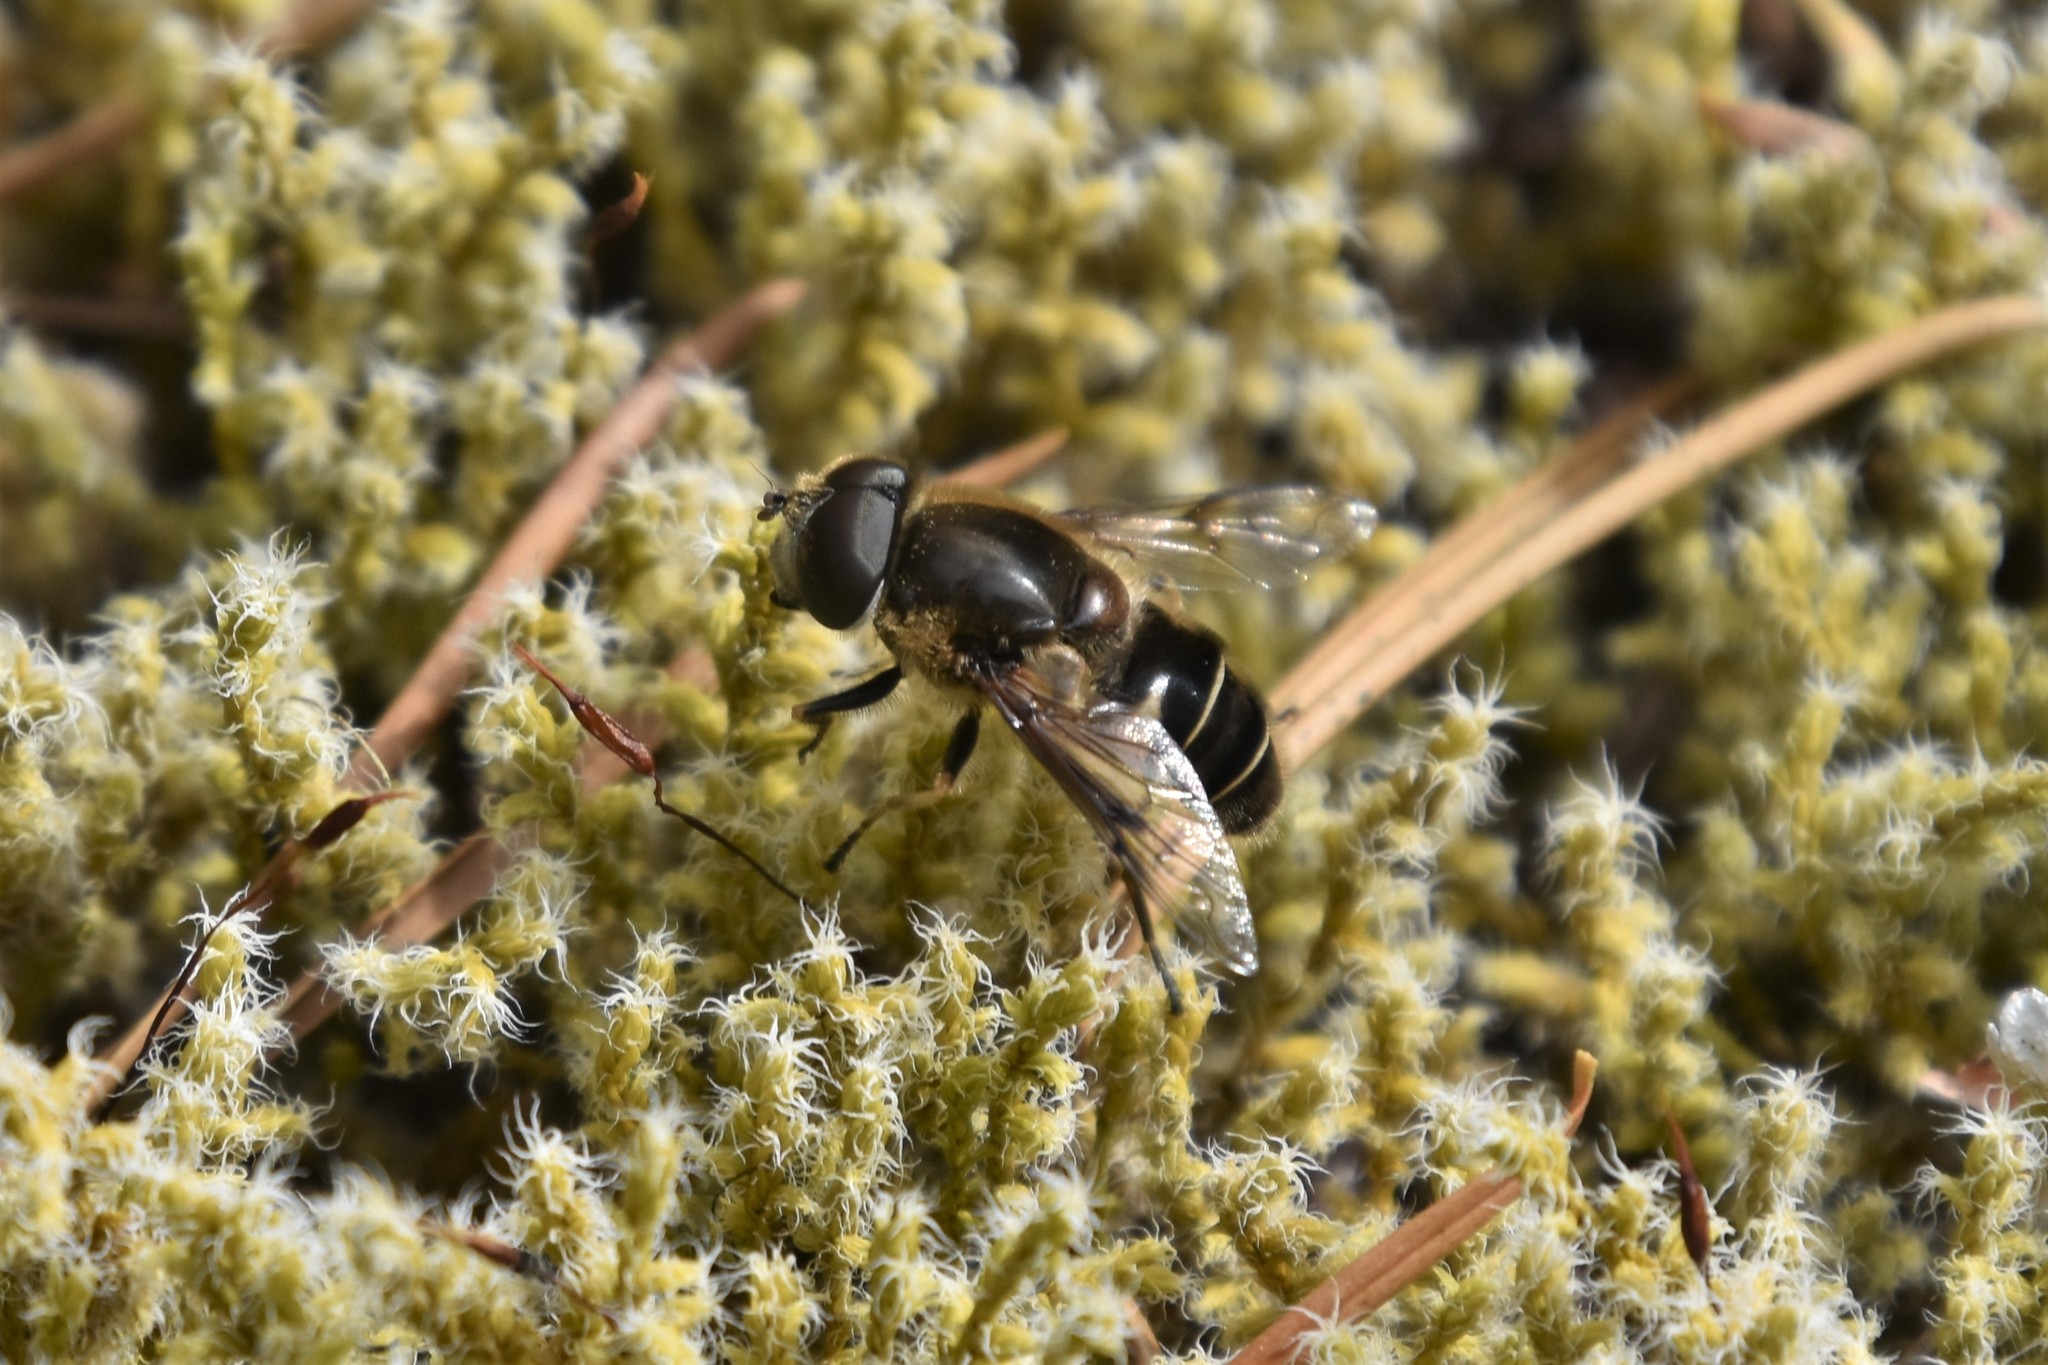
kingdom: Animalia
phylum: Arthropoda
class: Insecta
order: Diptera
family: Syrphidae
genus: Eristalis
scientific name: Eristalis obscura
